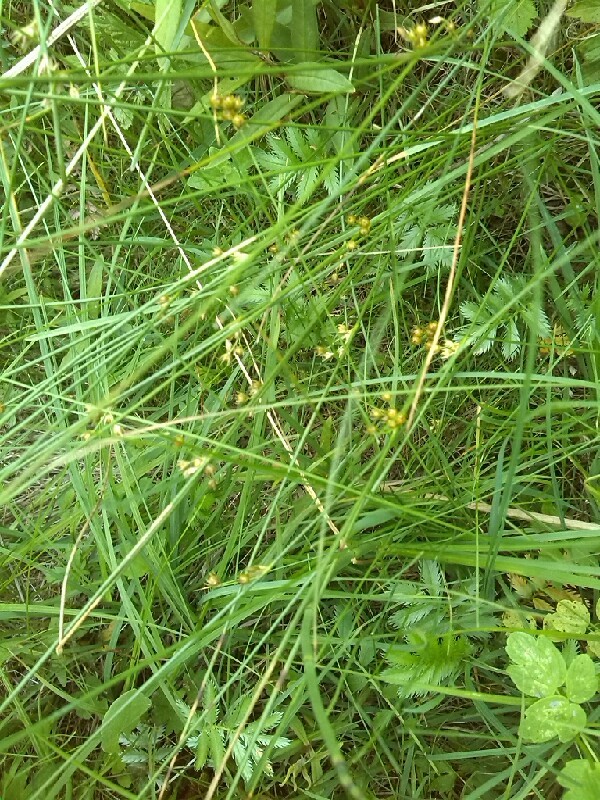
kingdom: Plantae
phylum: Tracheophyta
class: Liliopsida
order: Poales
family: Juncaceae
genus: Juncus
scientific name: Juncus filiformis
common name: Thread rush
